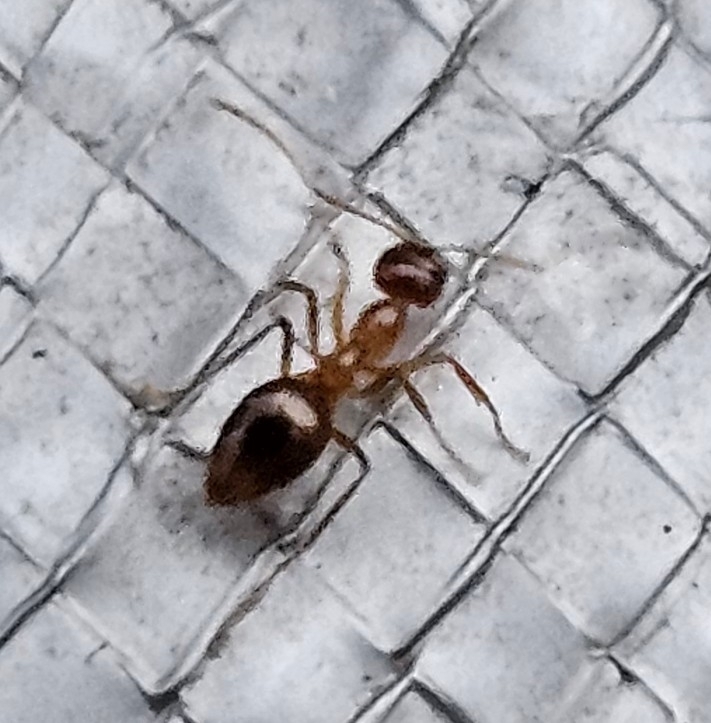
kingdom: Animalia
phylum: Arthropoda
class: Insecta
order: Hymenoptera
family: Formicidae
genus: Prenolepis
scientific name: Prenolepis imparis
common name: Small honey ant
